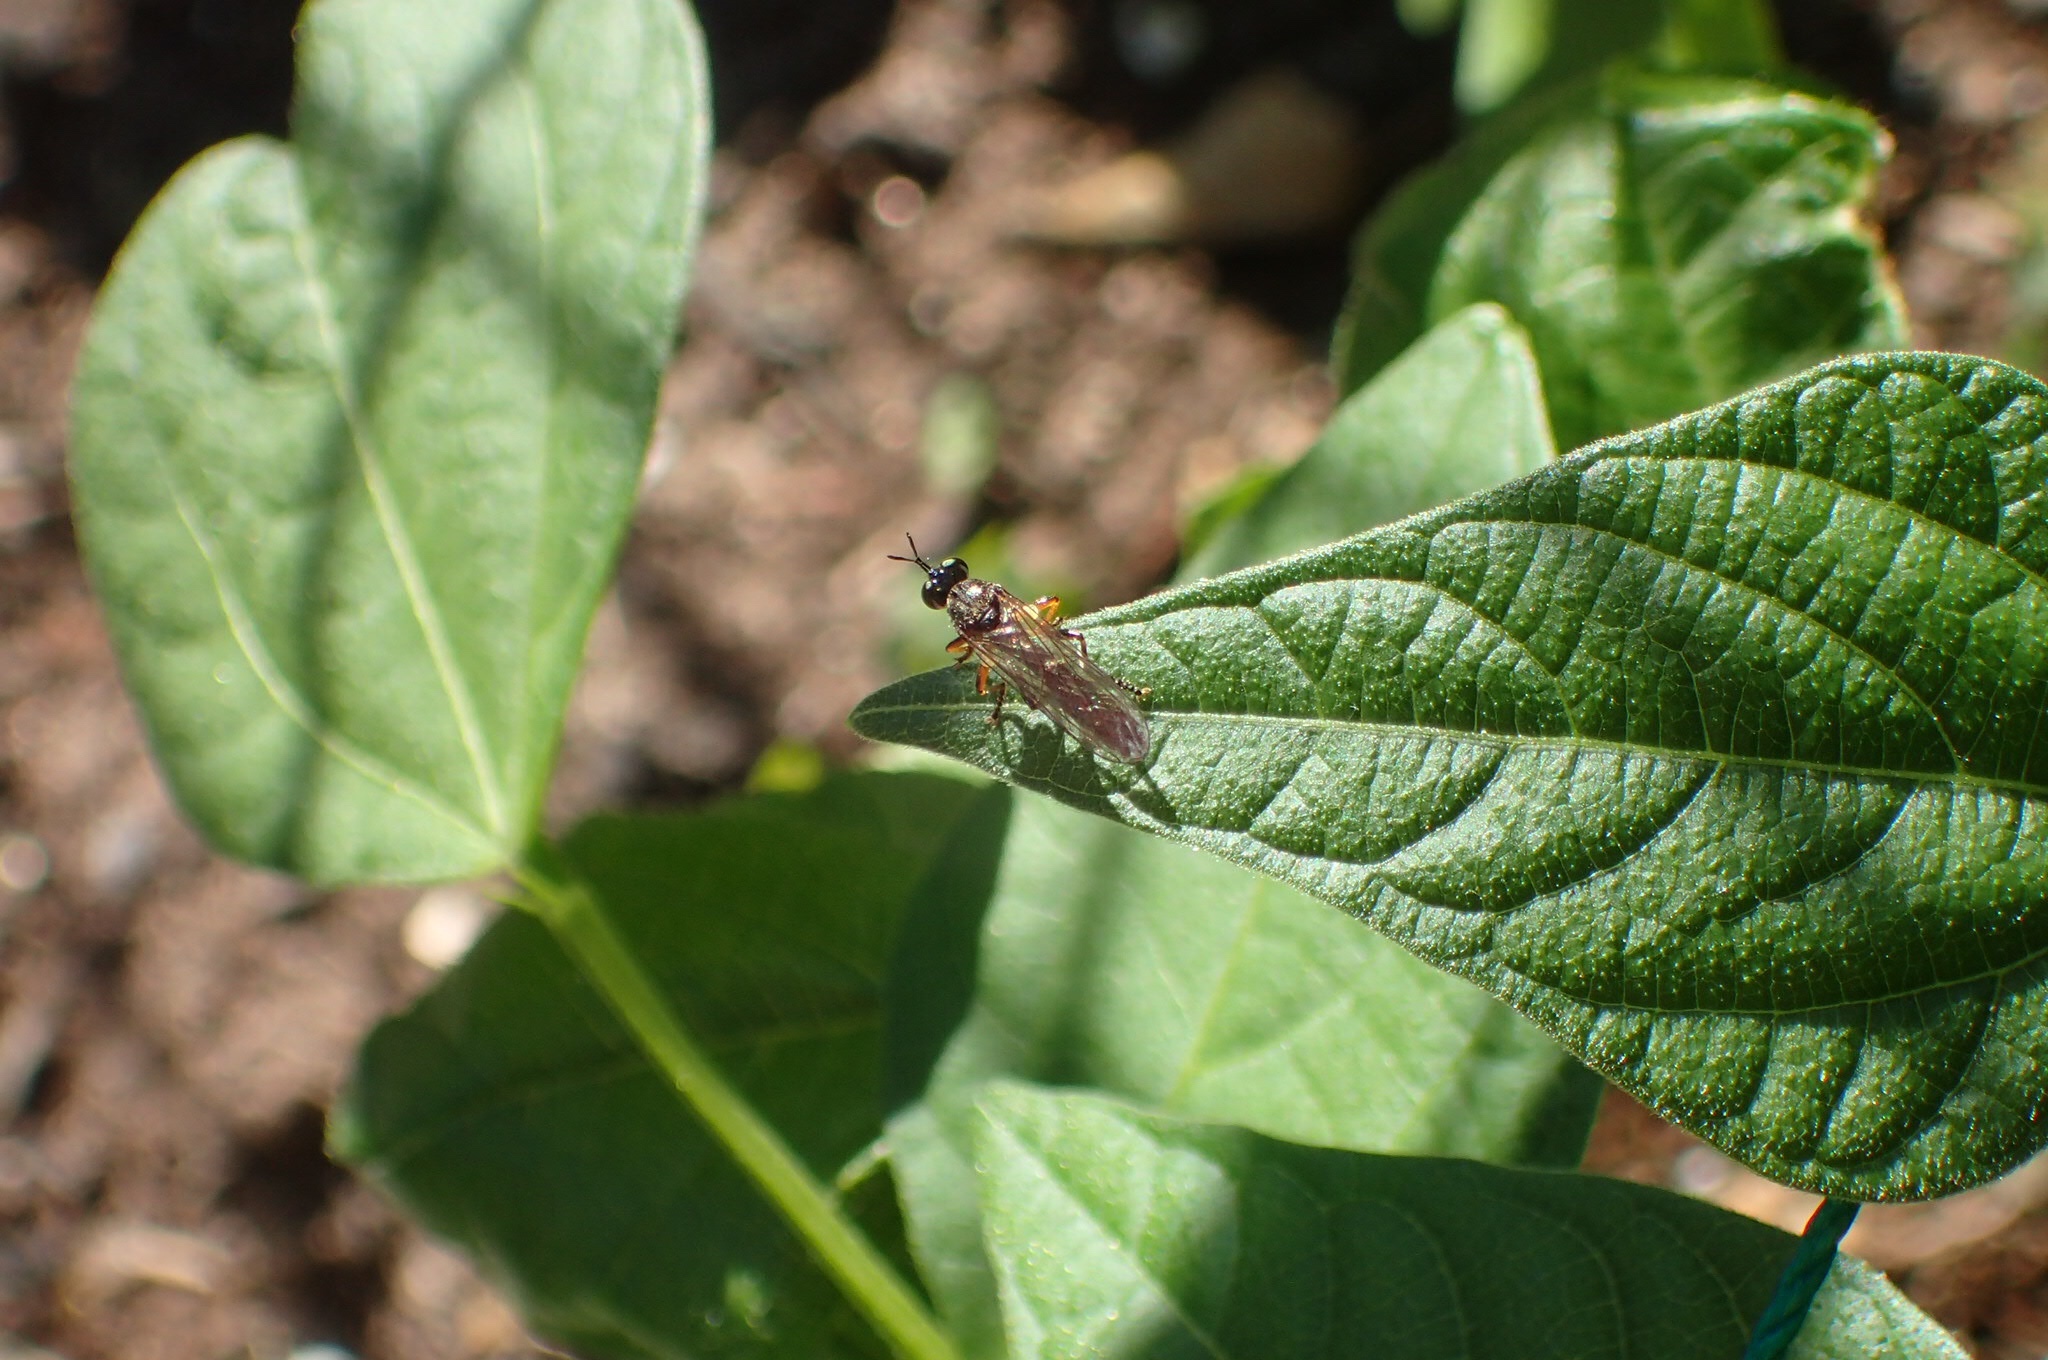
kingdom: Animalia
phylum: Arthropoda
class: Insecta
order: Diptera
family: Asilidae
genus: Dioctria
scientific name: Dioctria hyalipennis
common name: Stripe-legged robberfly
